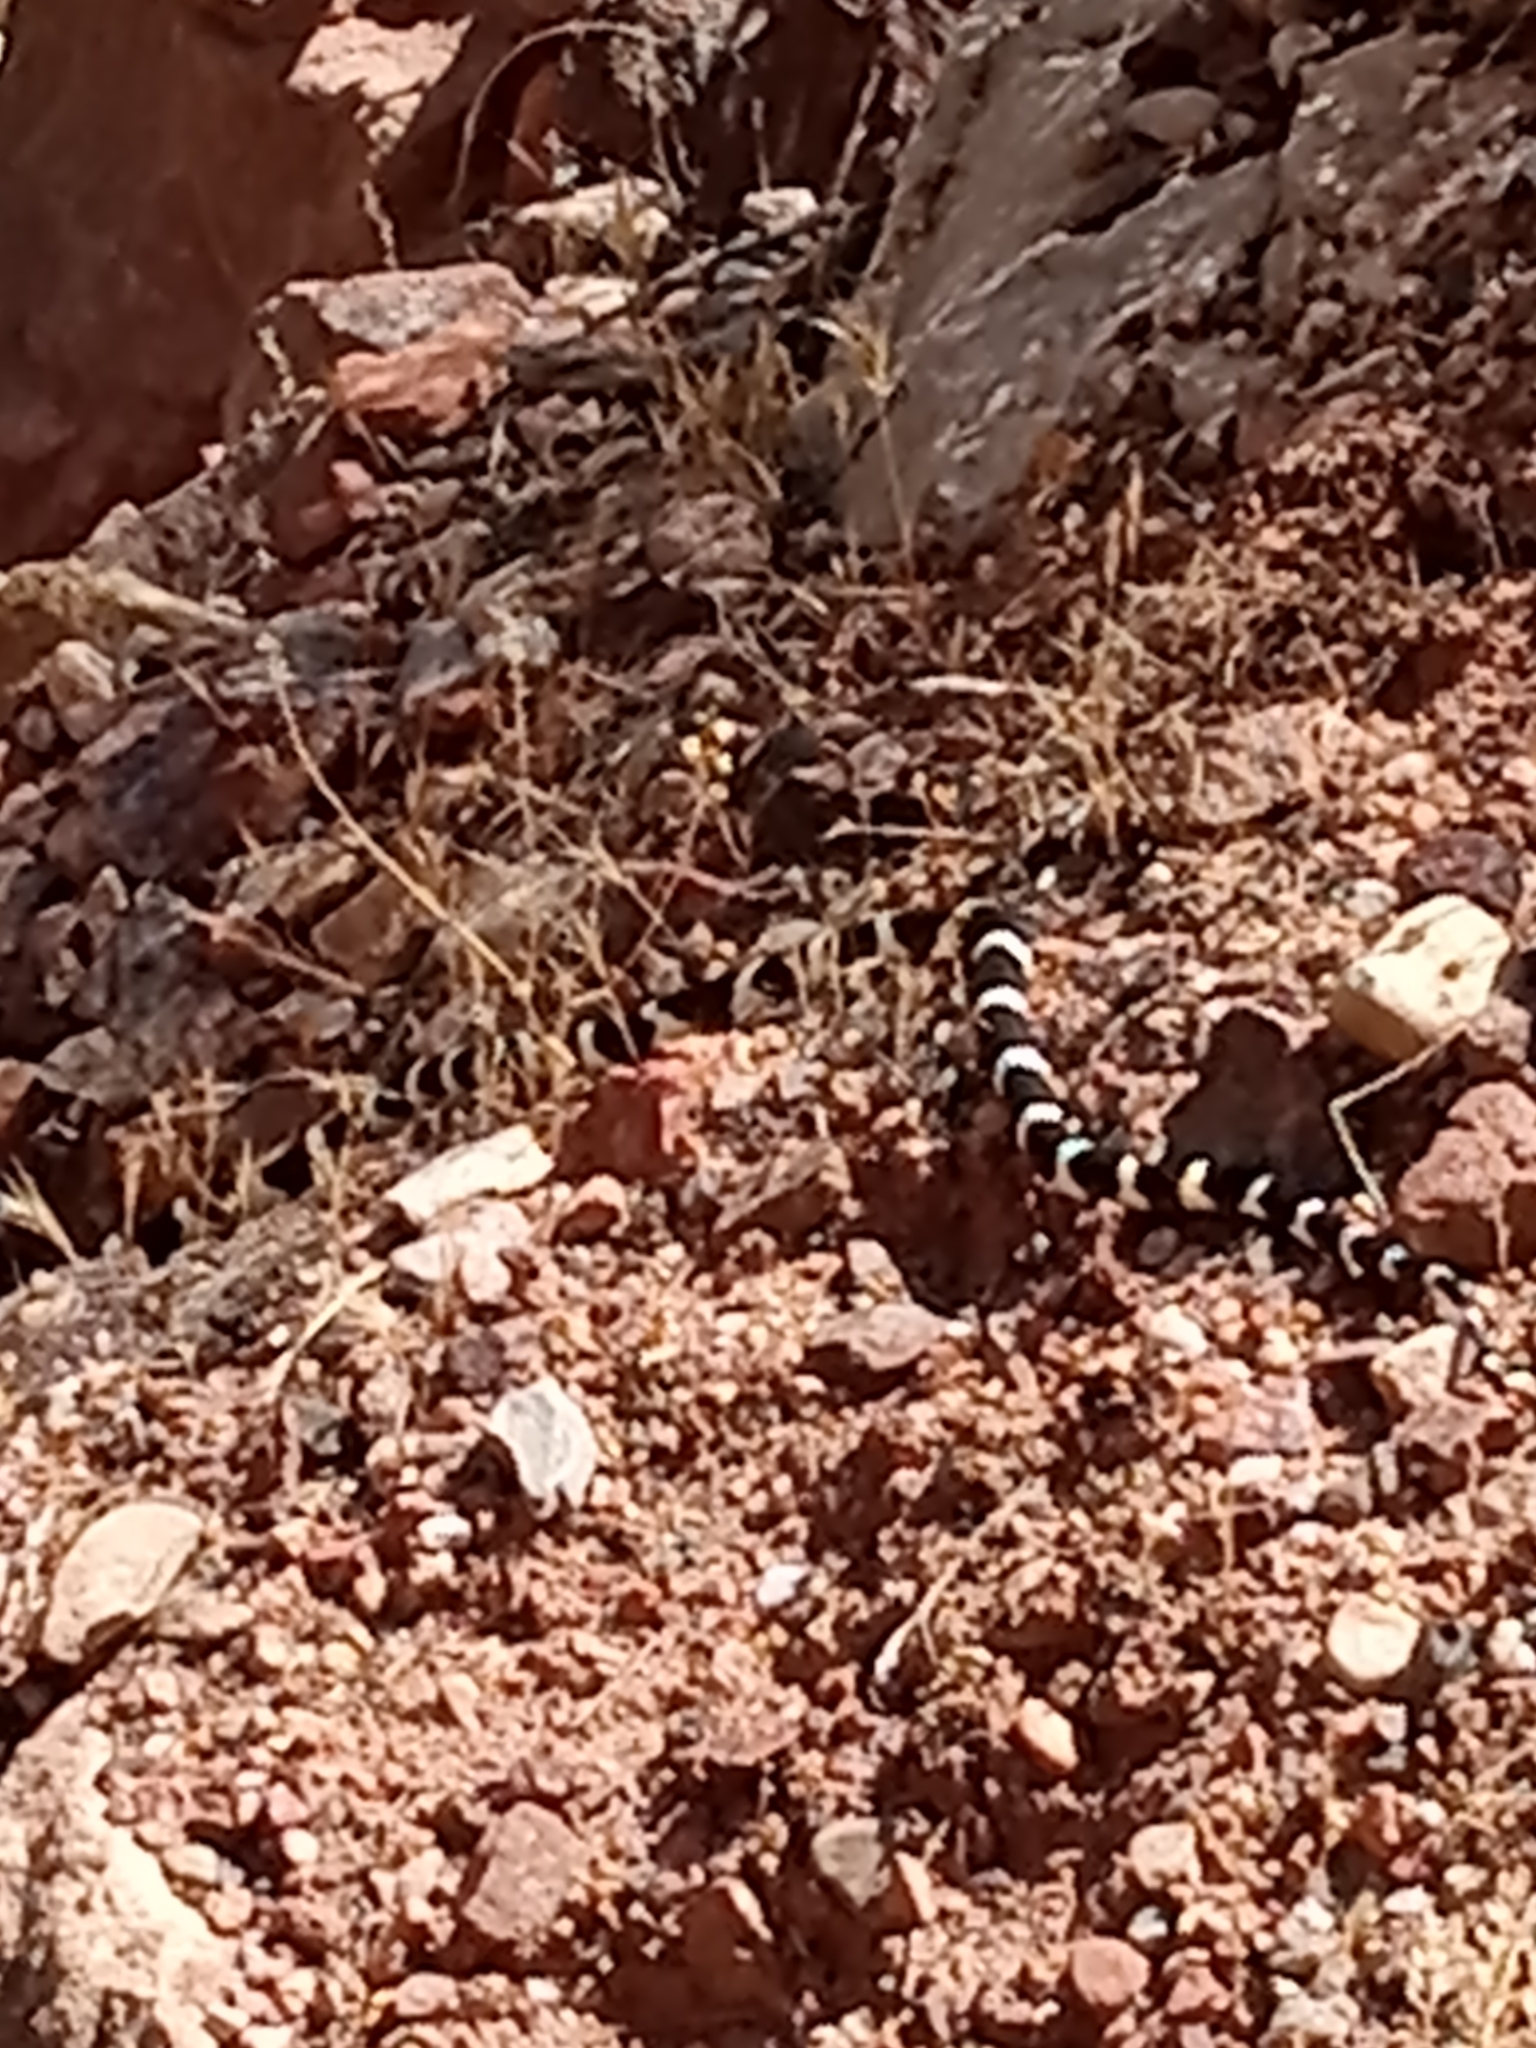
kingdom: Animalia
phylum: Chordata
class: Squamata
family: Colubridae
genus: Lampropeltis
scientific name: Lampropeltis californiae
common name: California kingsnake
